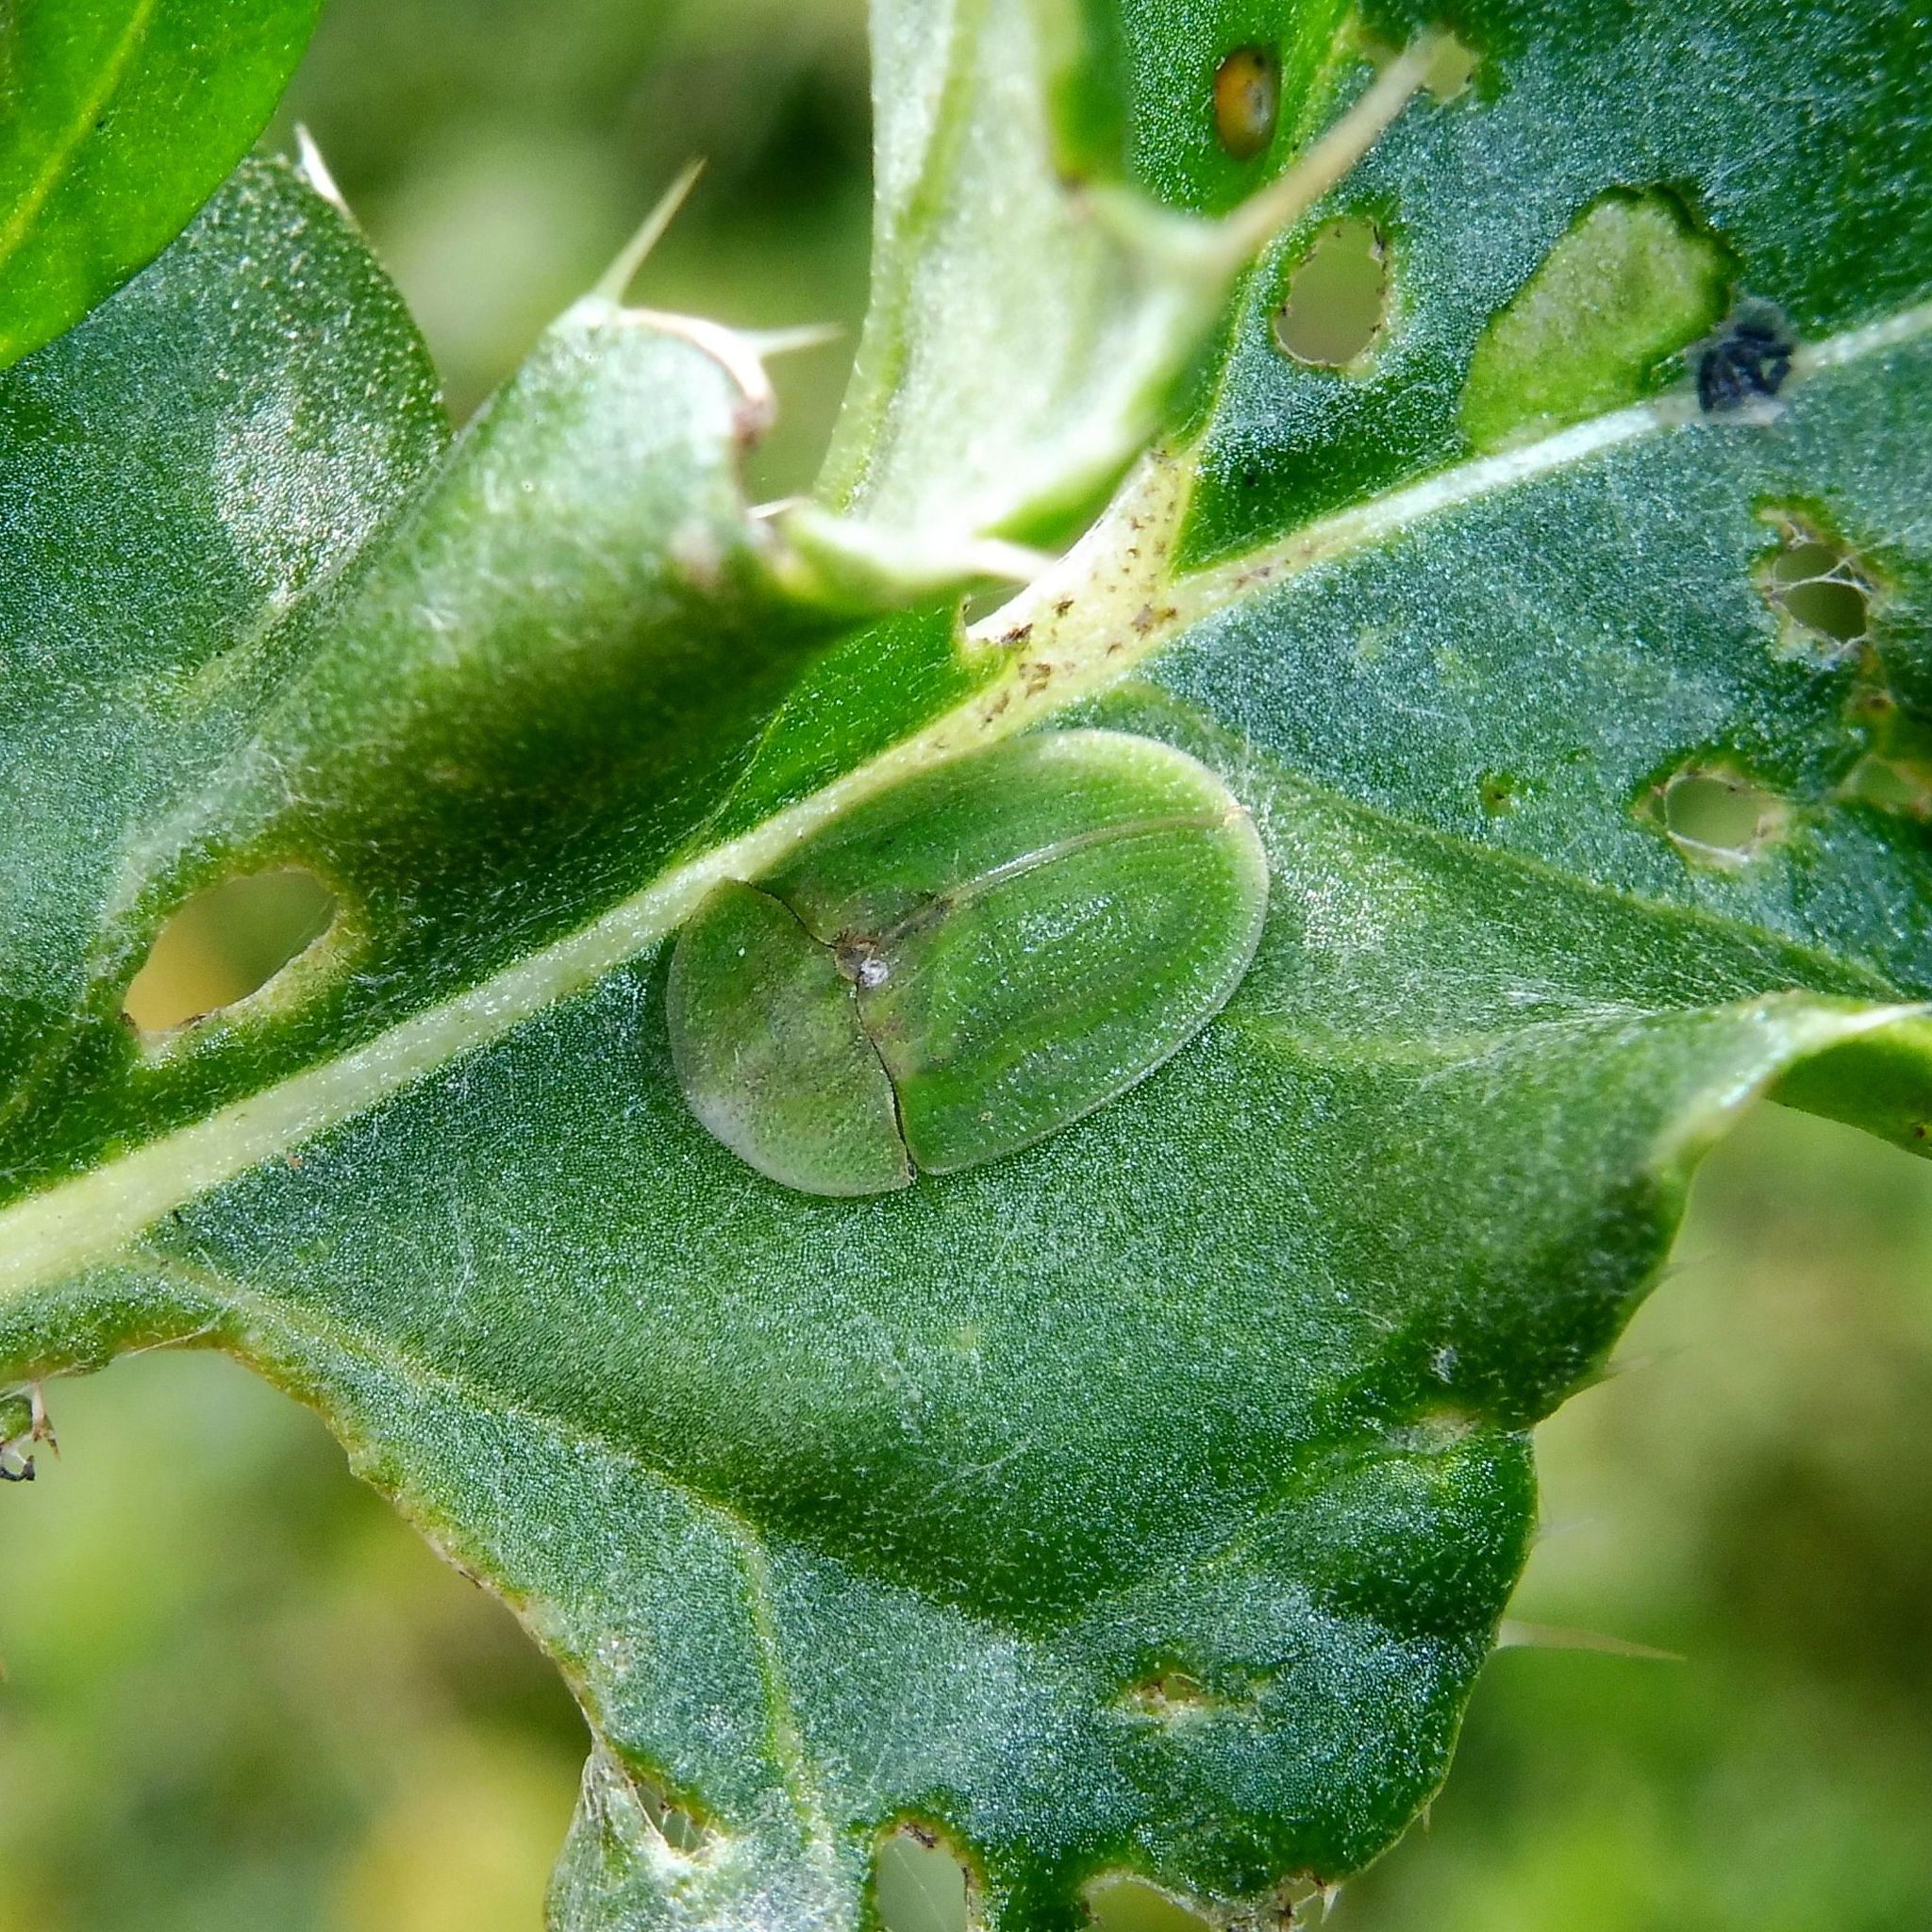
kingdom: Animalia
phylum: Arthropoda
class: Insecta
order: Coleoptera
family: Chrysomelidae
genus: Cassida
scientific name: Cassida rubiginosa
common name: Thistle tortoise beetle
